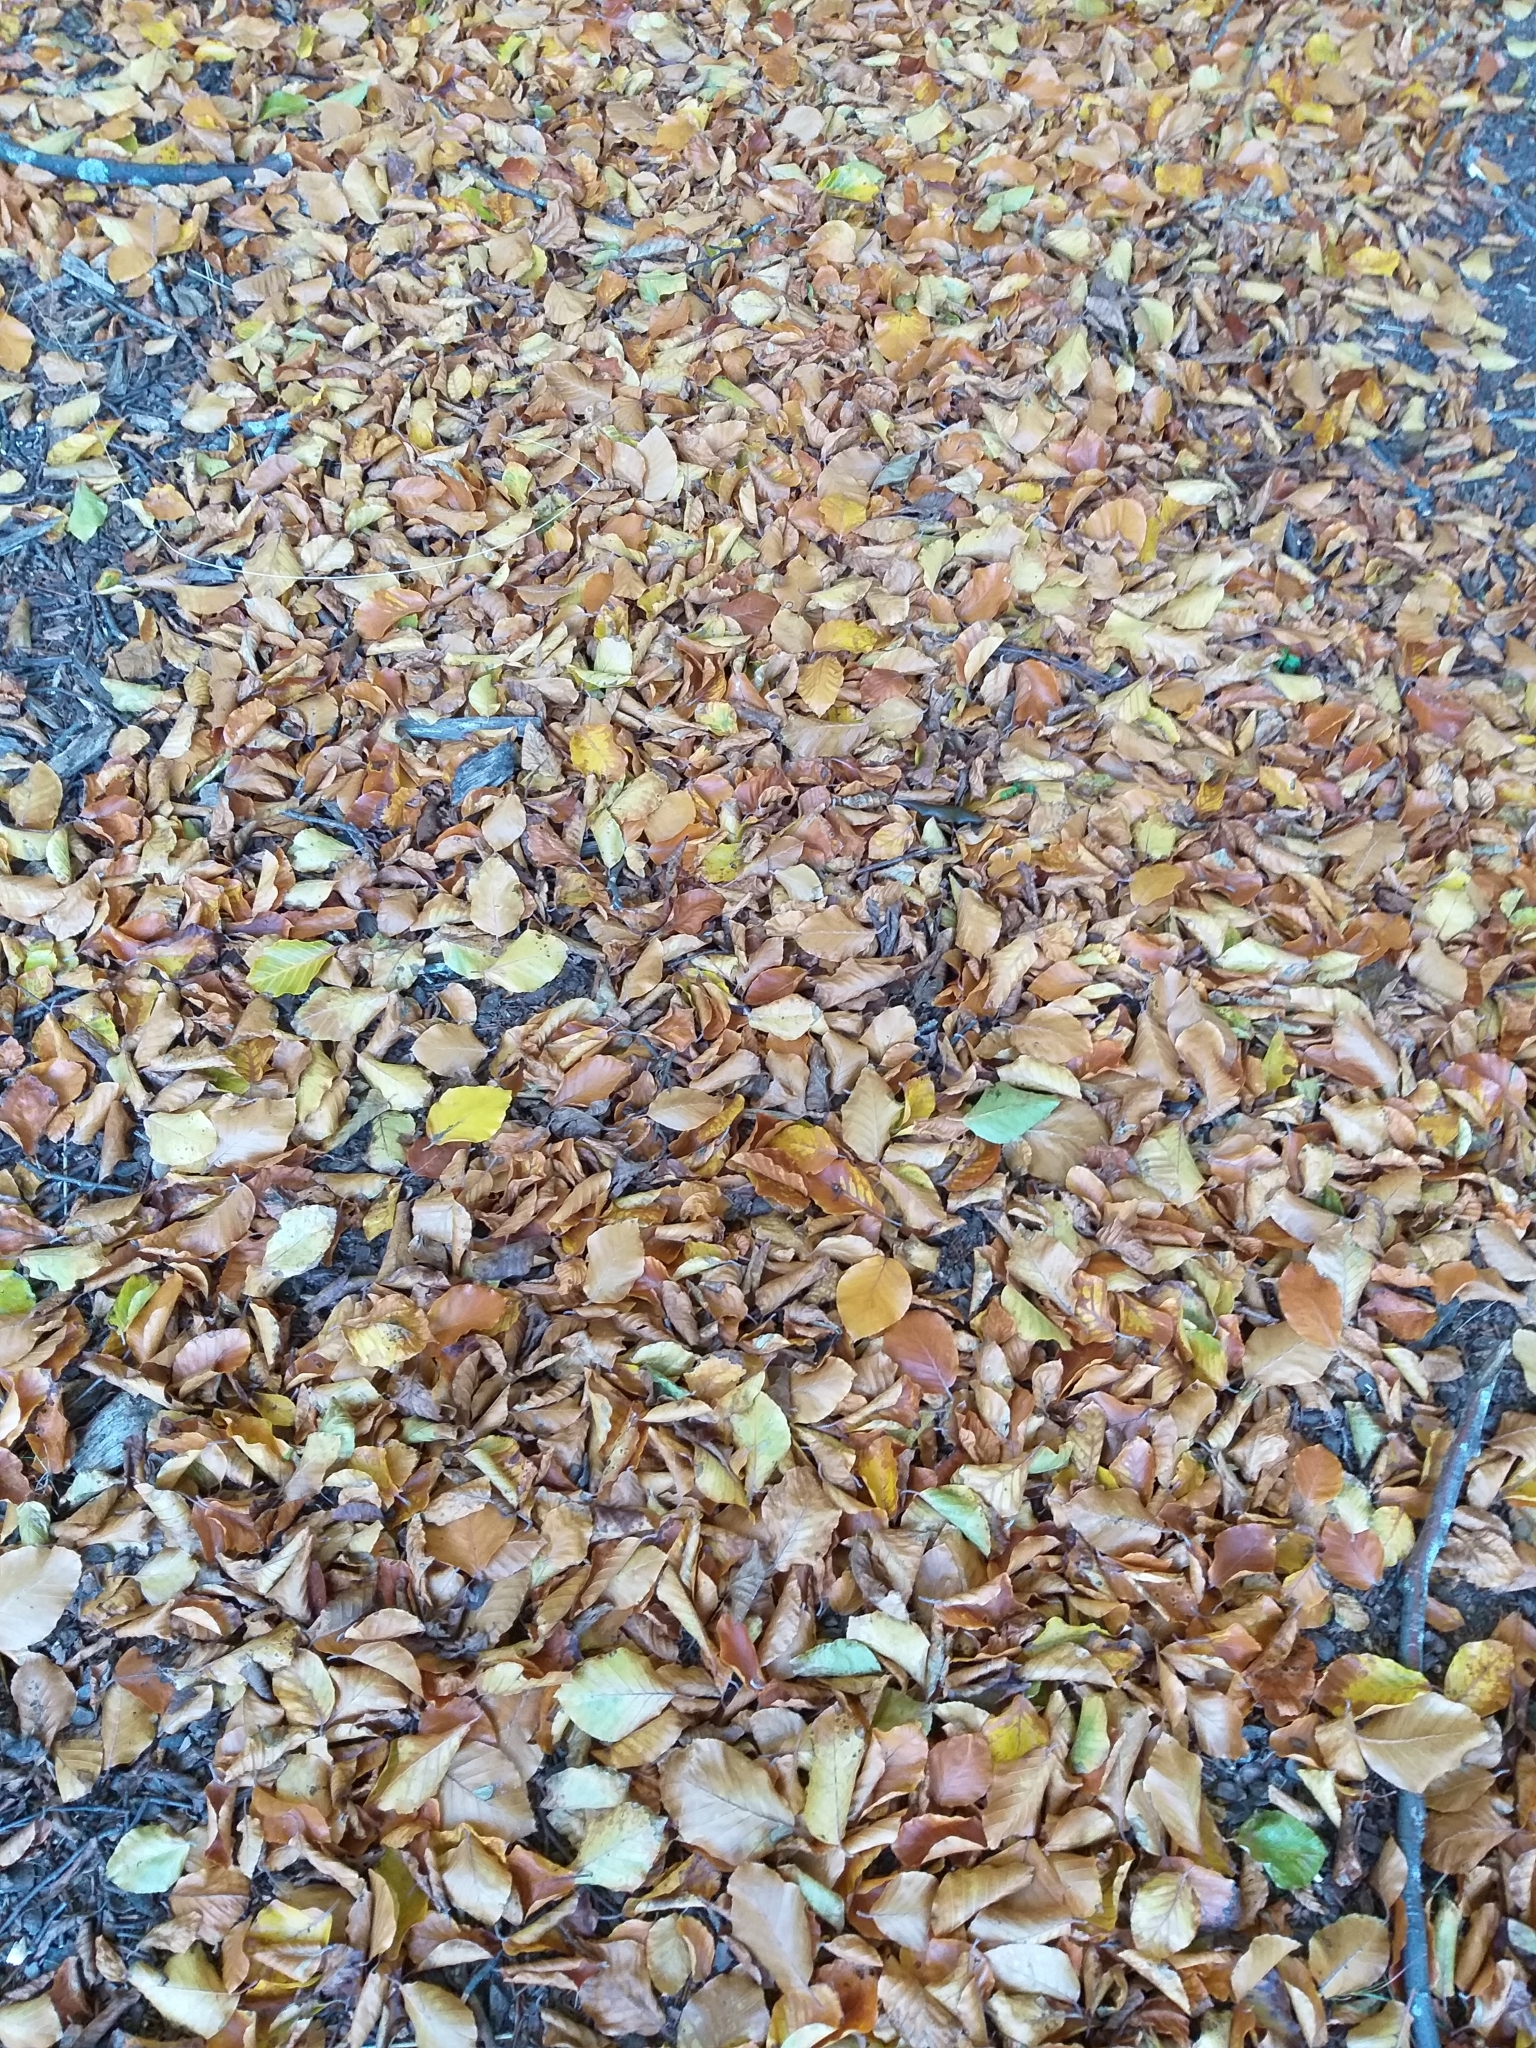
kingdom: Plantae
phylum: Tracheophyta
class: Magnoliopsida
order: Fagales
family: Fagaceae
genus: Fagus
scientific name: Fagus sylvatica
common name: Beech
